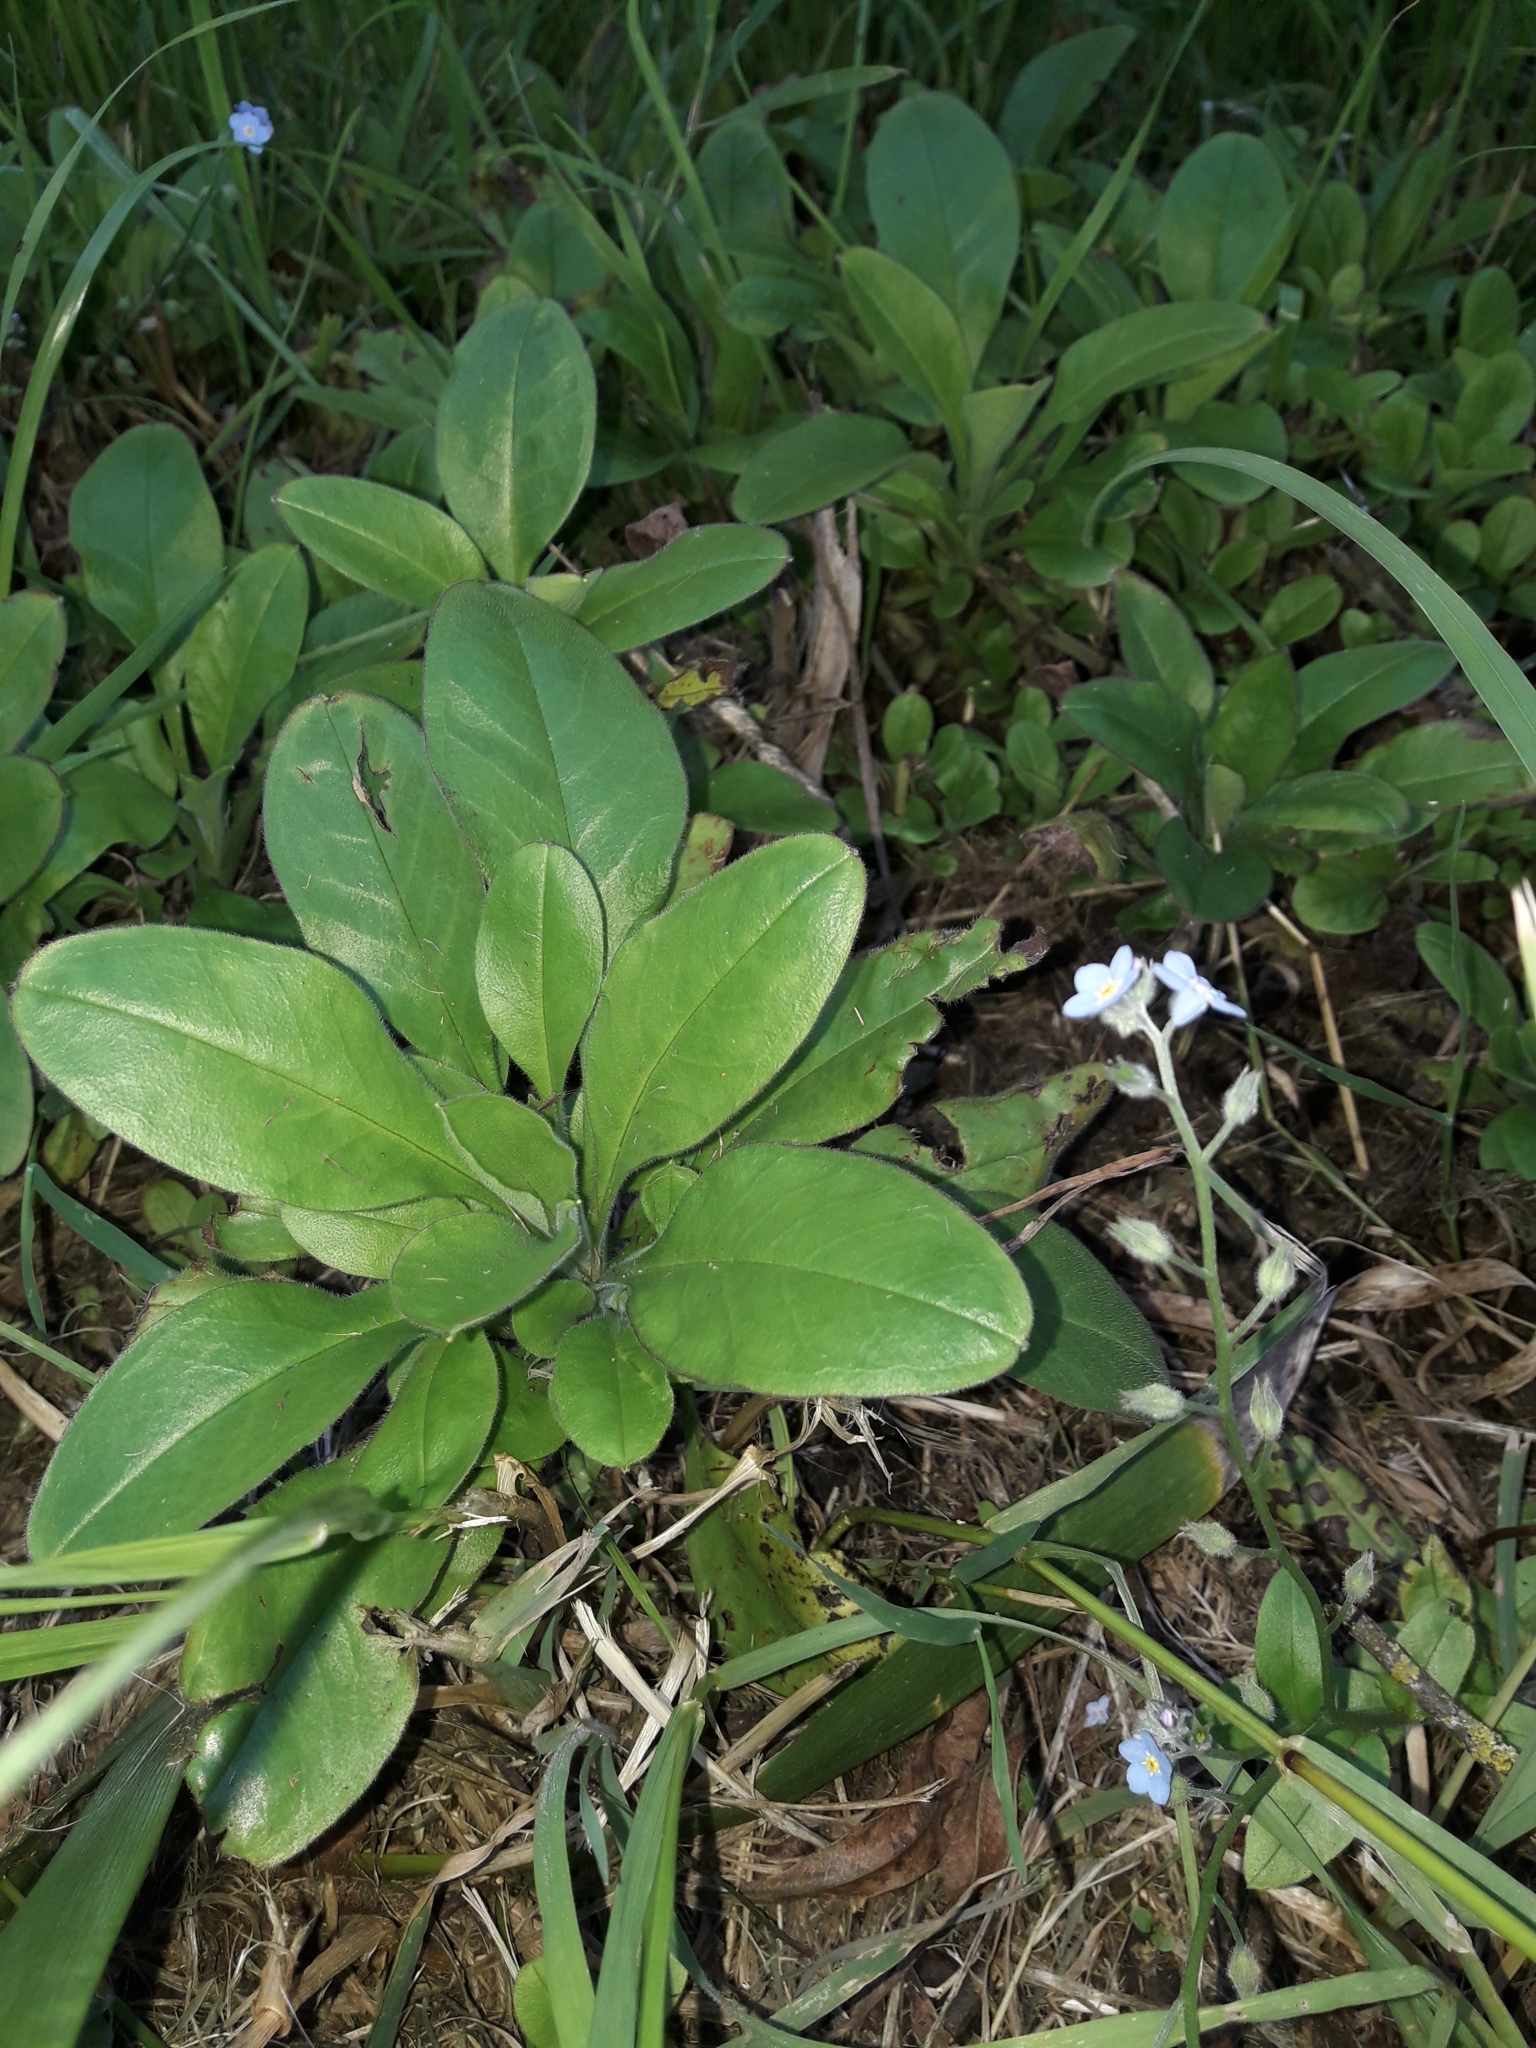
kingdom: Plantae
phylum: Tracheophyta
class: Magnoliopsida
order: Boraginales
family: Boraginaceae
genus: Myosotis
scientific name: Myosotis sylvatica
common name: Wood forget-me-not
